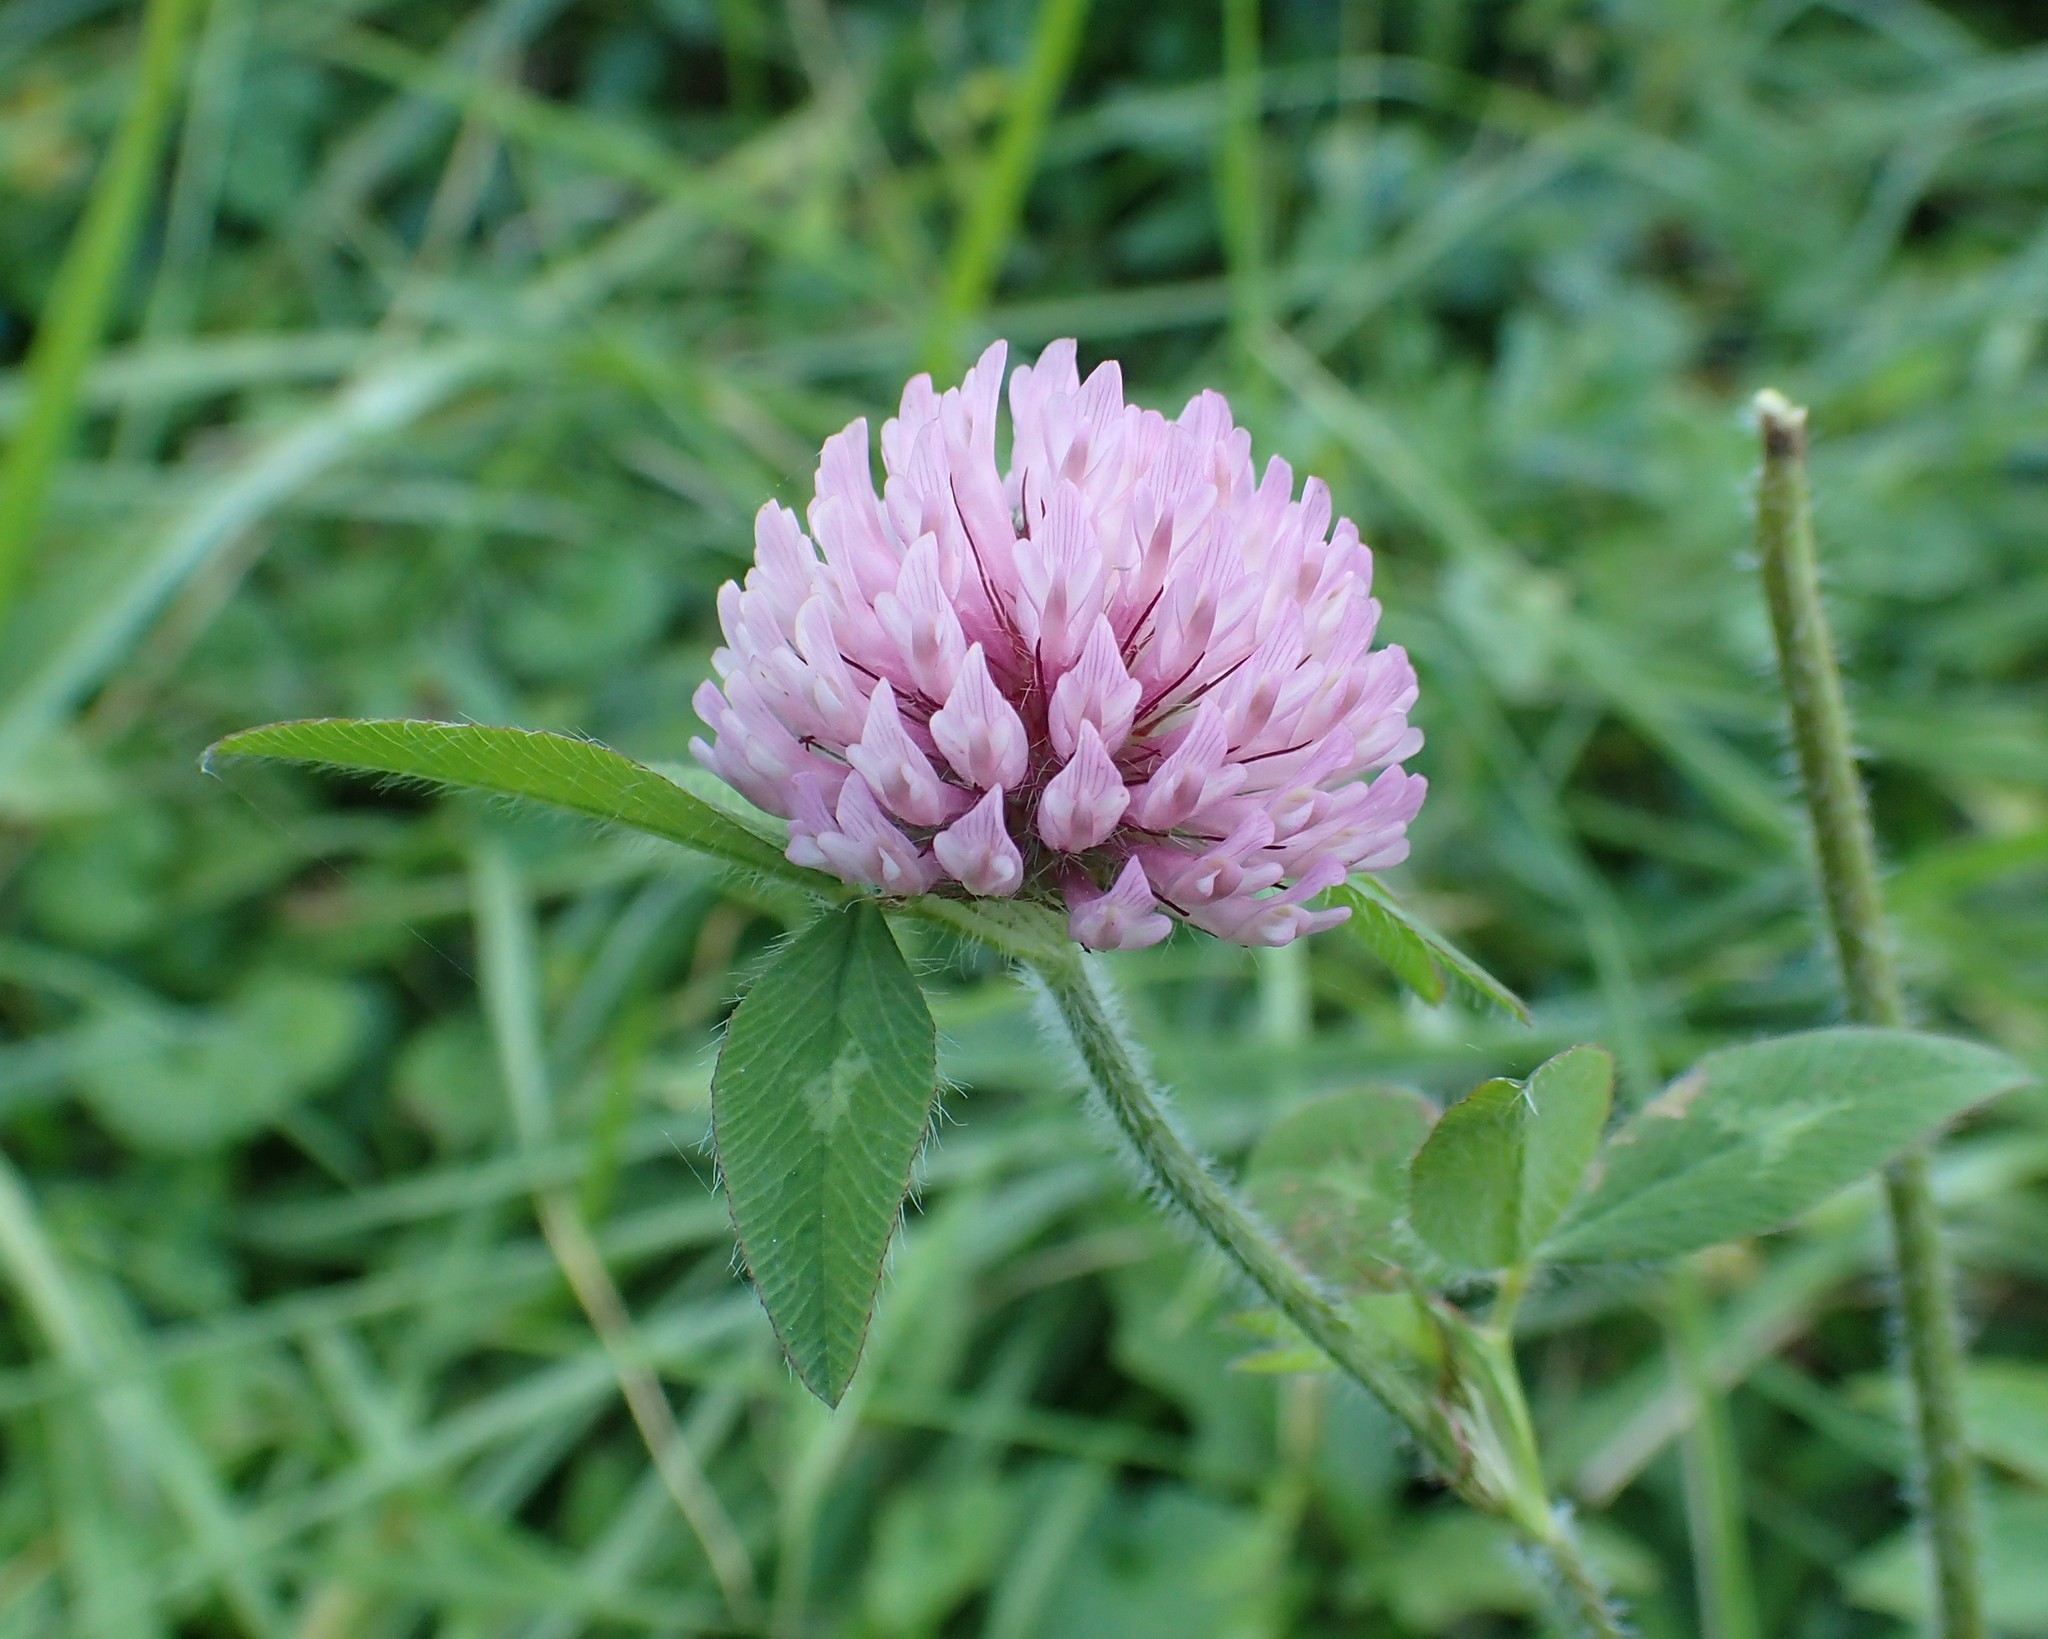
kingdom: Plantae
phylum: Tracheophyta
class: Magnoliopsida
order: Fabales
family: Fabaceae
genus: Trifolium
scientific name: Trifolium pratense
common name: Red clover
